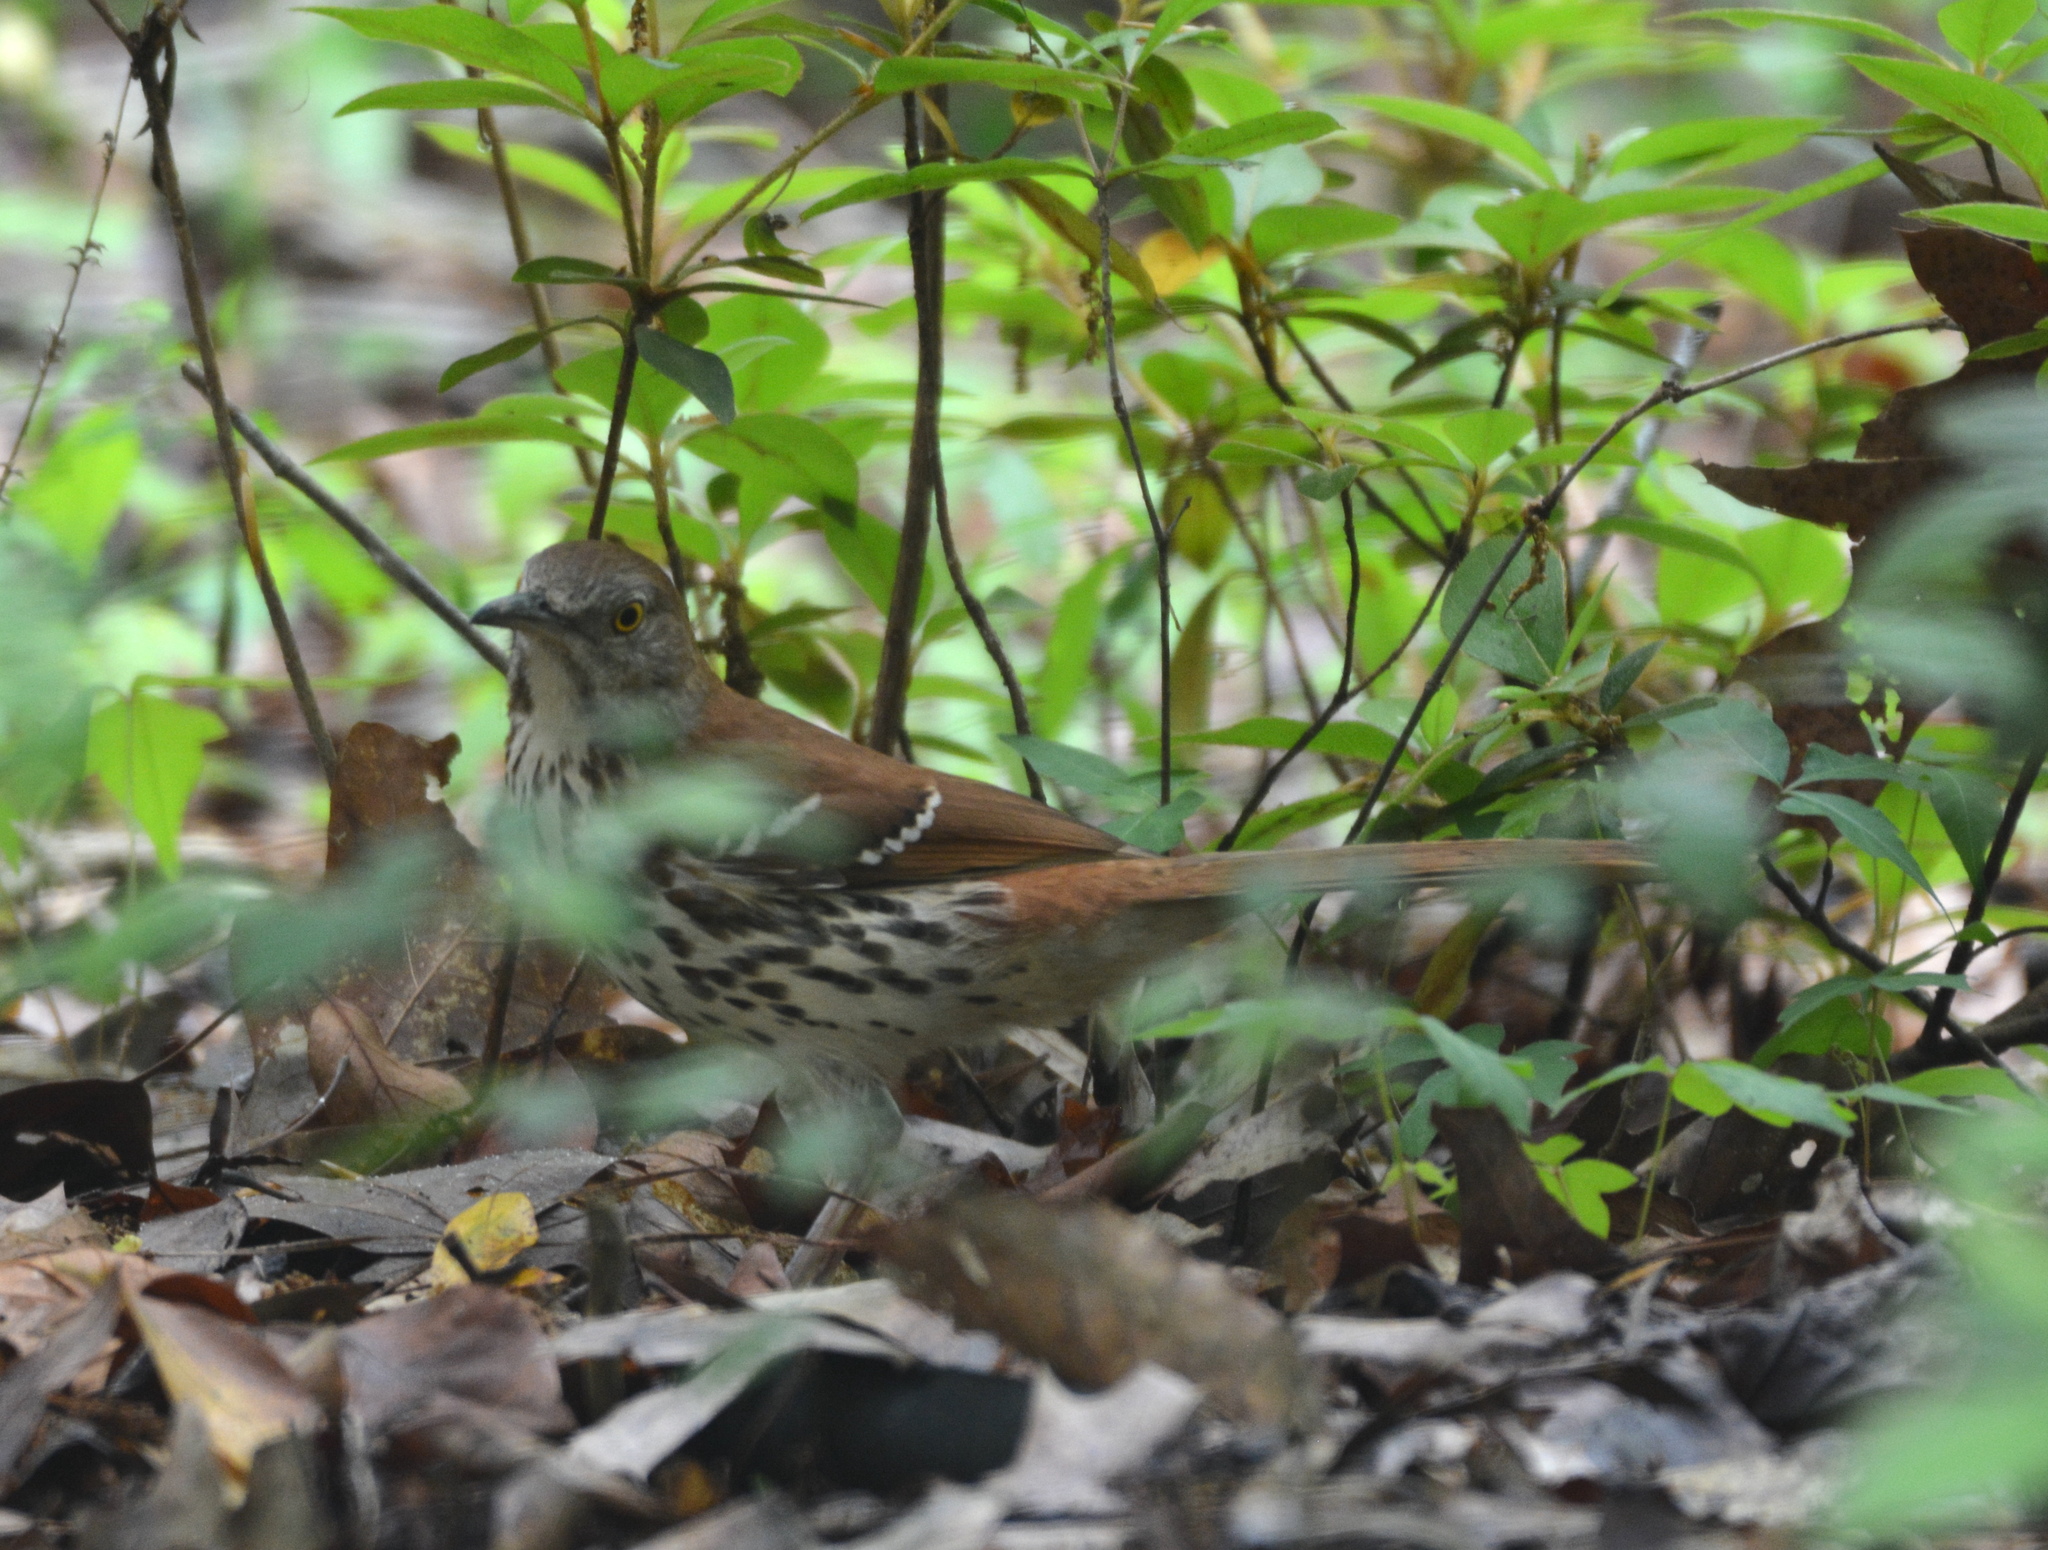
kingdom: Animalia
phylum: Chordata
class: Aves
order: Passeriformes
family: Mimidae
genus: Toxostoma
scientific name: Toxostoma rufum
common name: Brown thrasher
